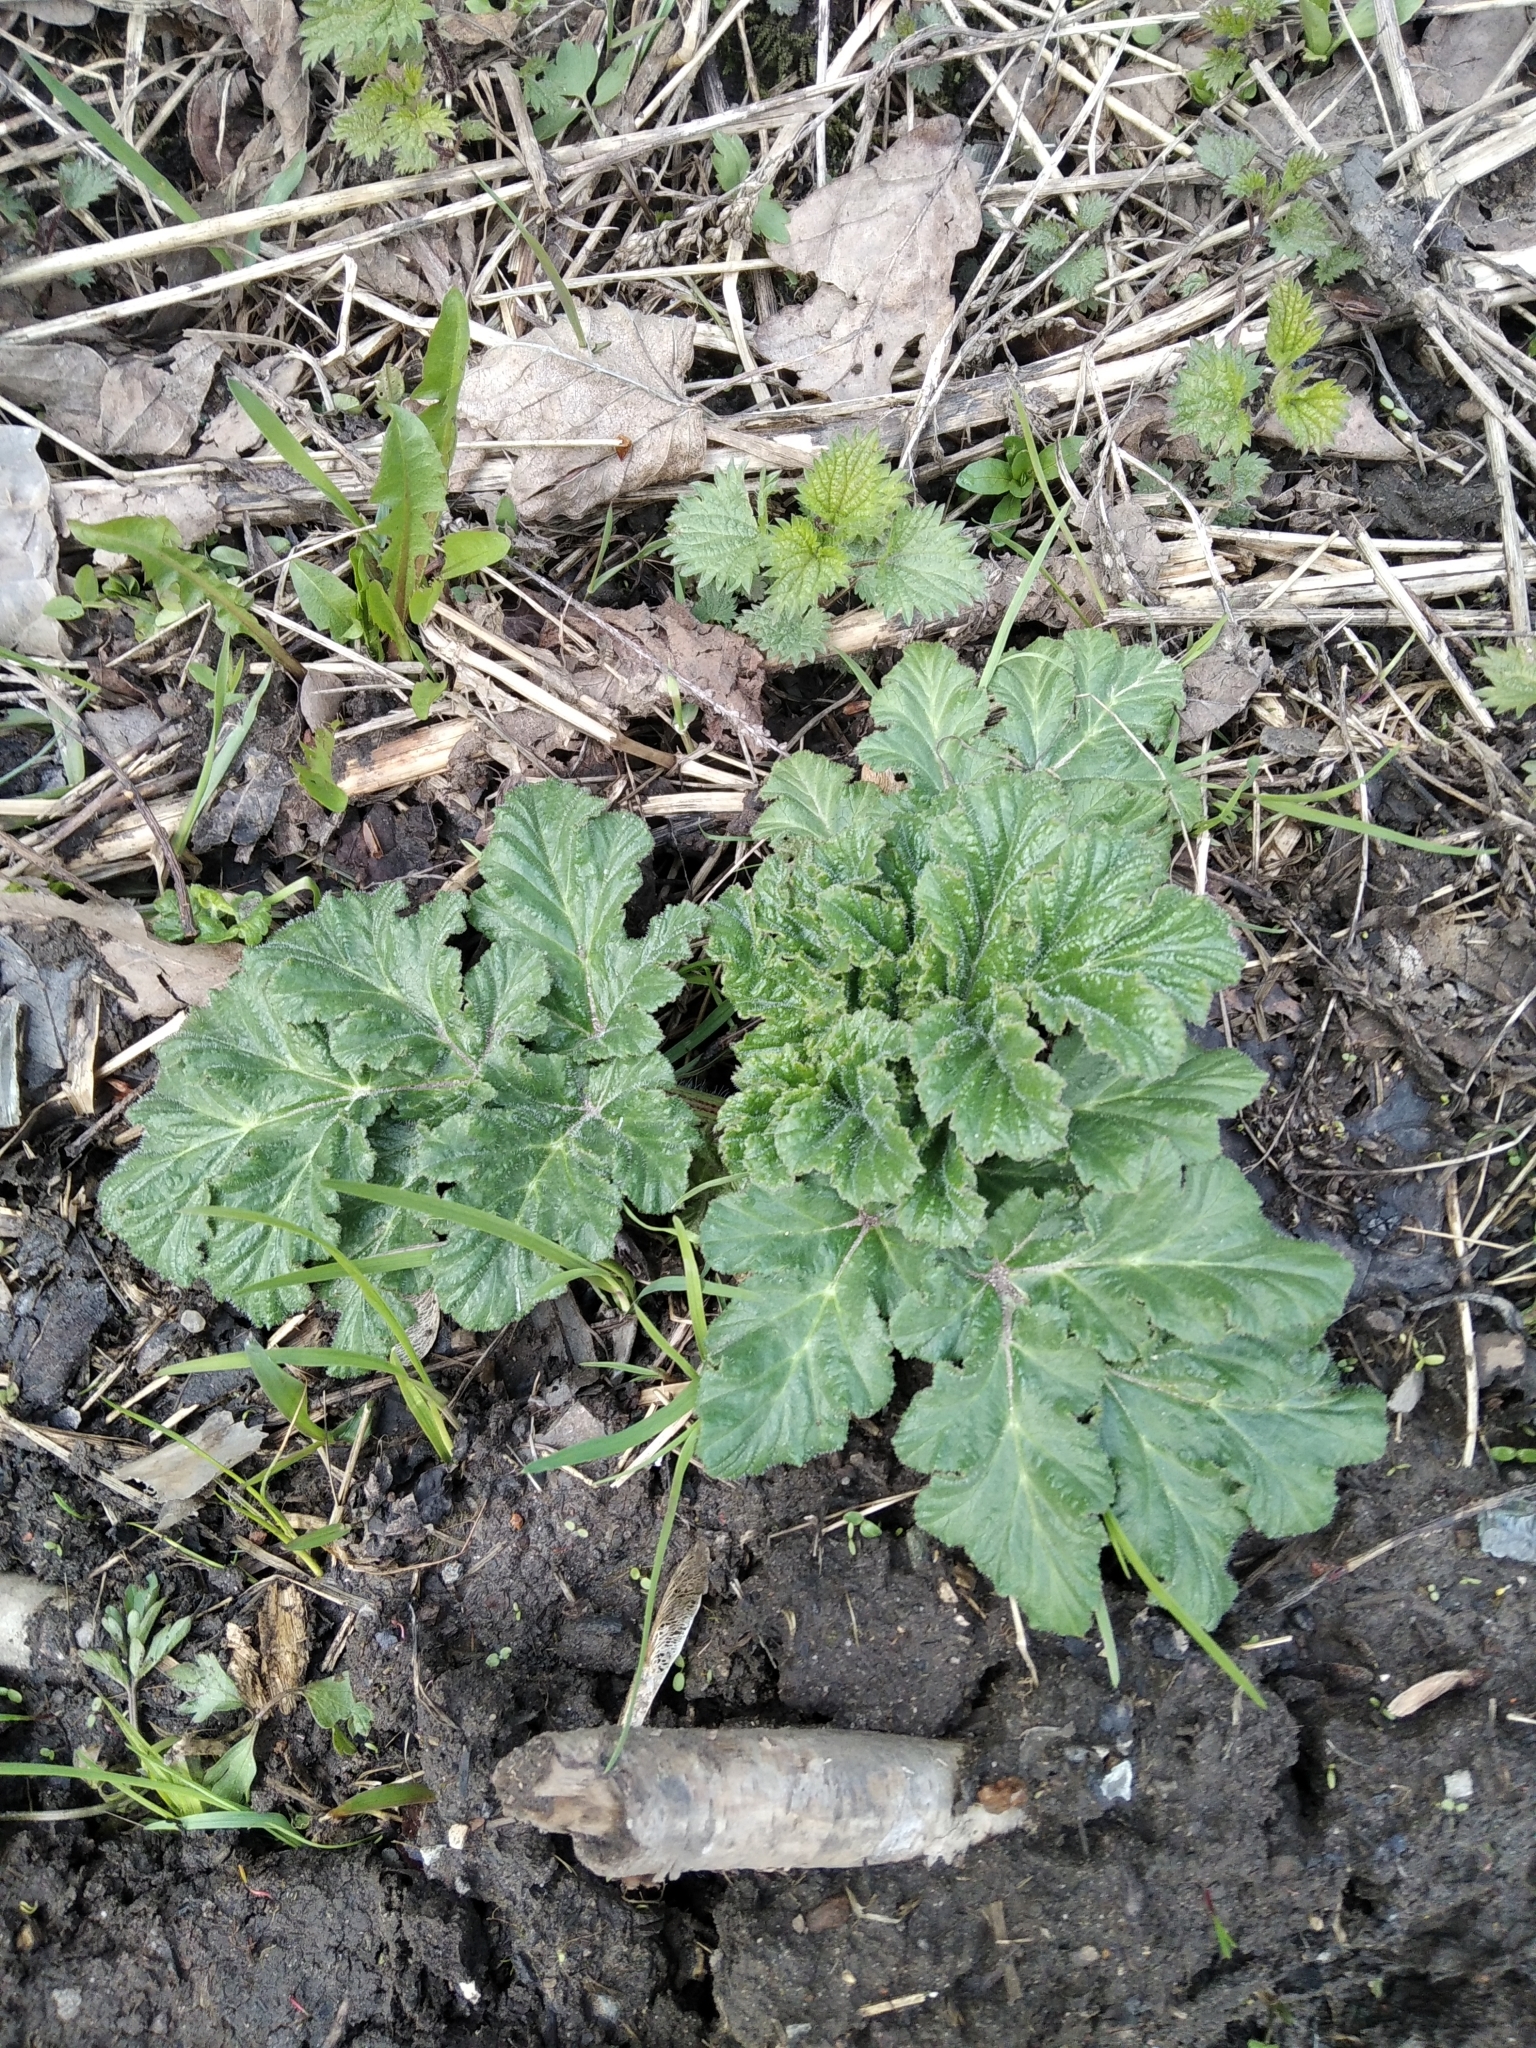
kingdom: Plantae
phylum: Tracheophyta
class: Magnoliopsida
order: Apiales
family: Apiaceae
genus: Heracleum
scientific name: Heracleum sosnowskyi
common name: Sosnowsky's hogweed
